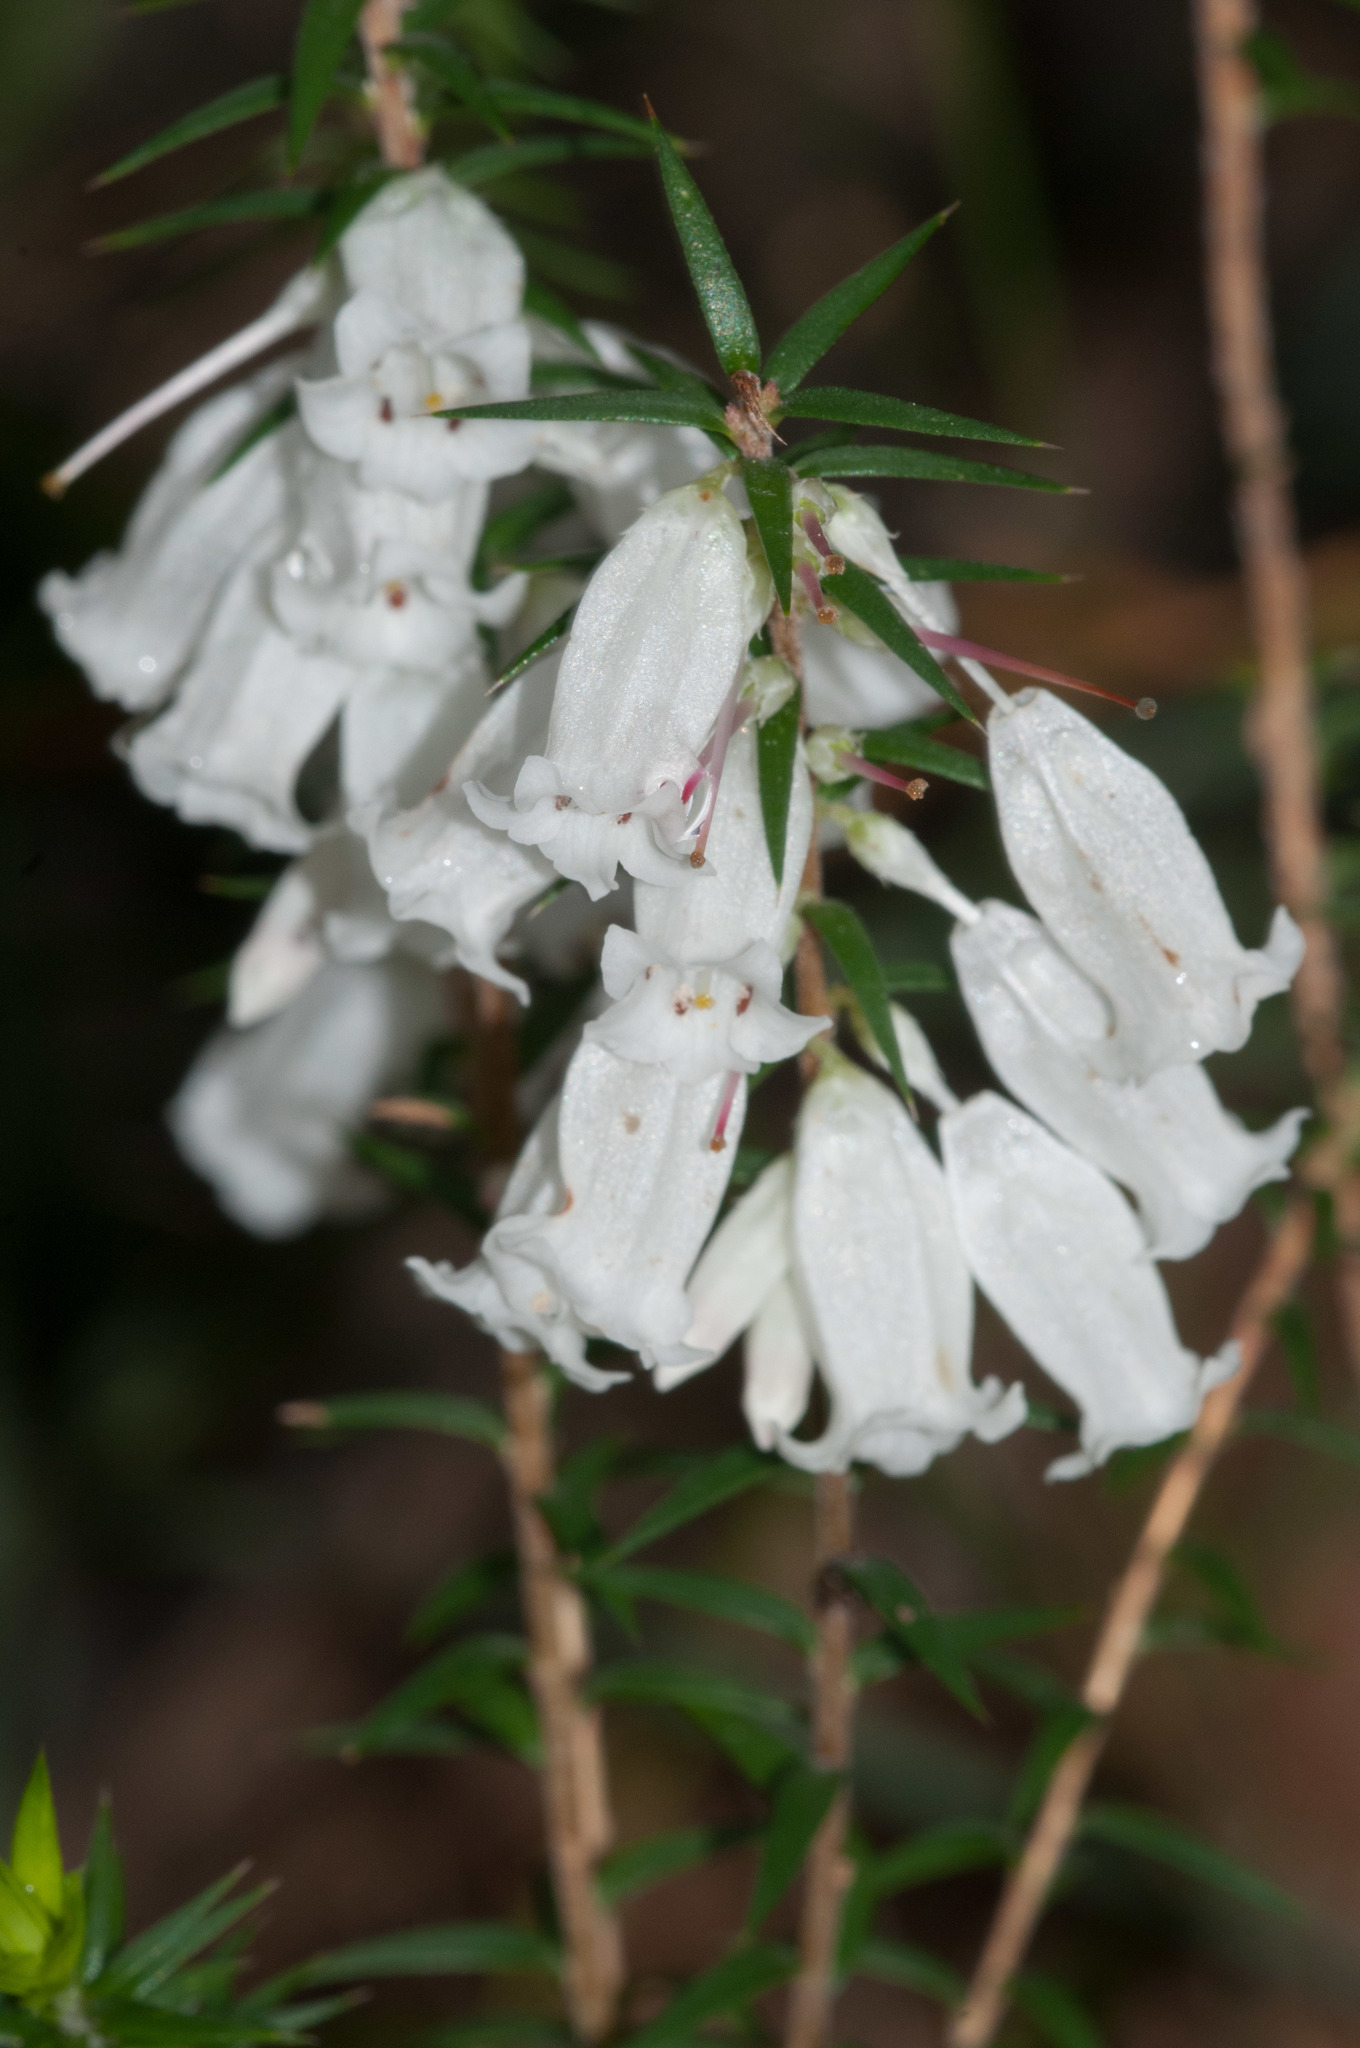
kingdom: Plantae
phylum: Tracheophyta
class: Magnoliopsida
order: Ericales
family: Ericaceae
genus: Epacris
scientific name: Epacris impressa
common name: Common-heath
